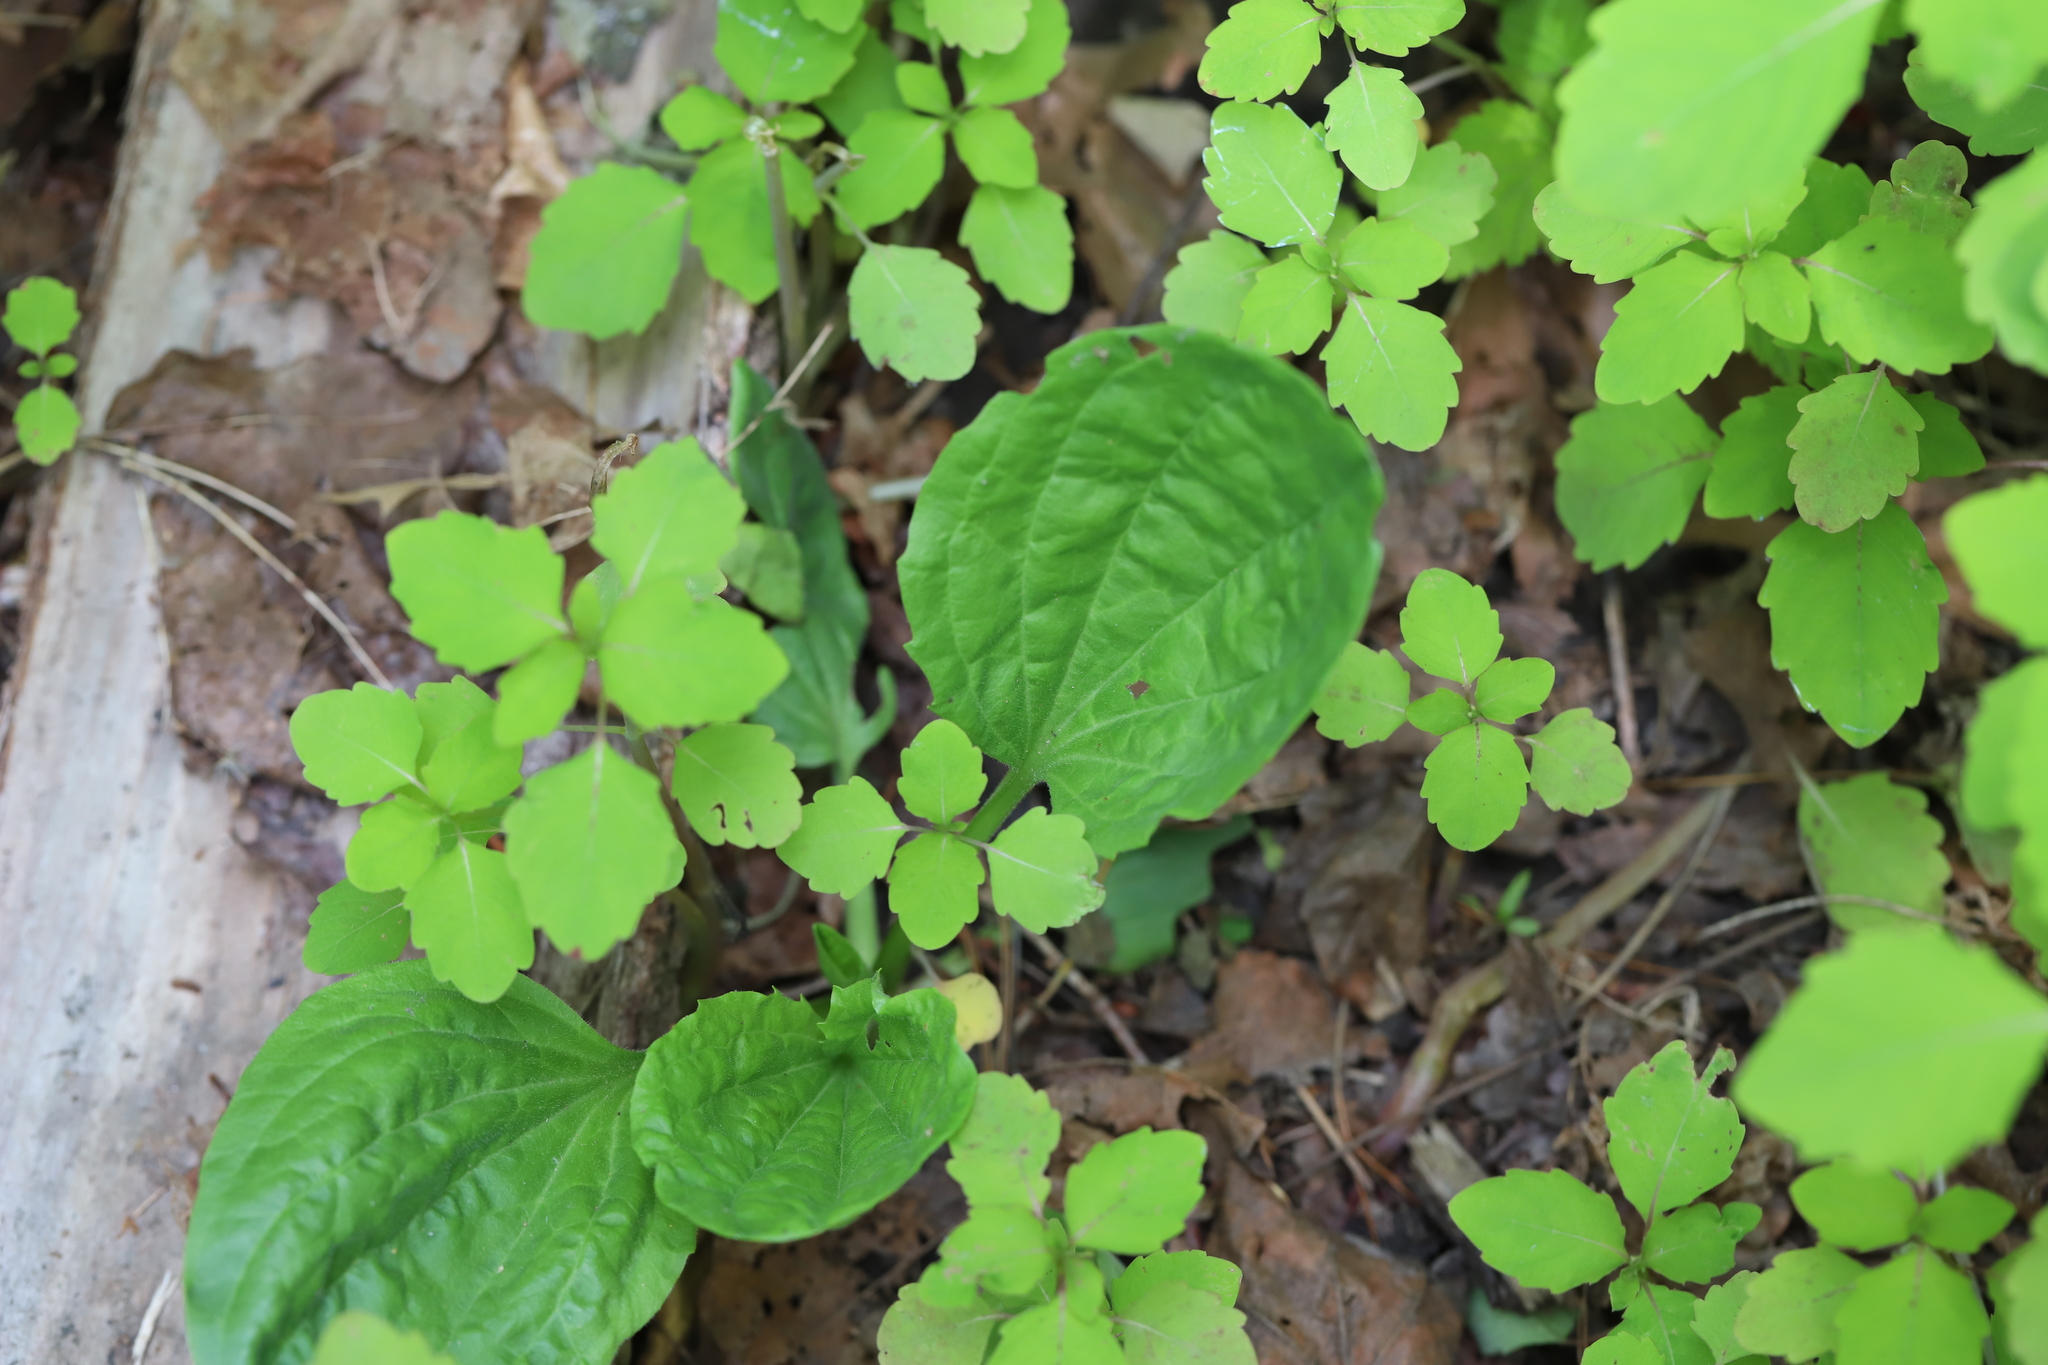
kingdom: Plantae
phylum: Tracheophyta
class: Magnoliopsida
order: Lamiales
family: Plantaginaceae
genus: Plantago
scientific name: Plantago major
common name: Common plantain
